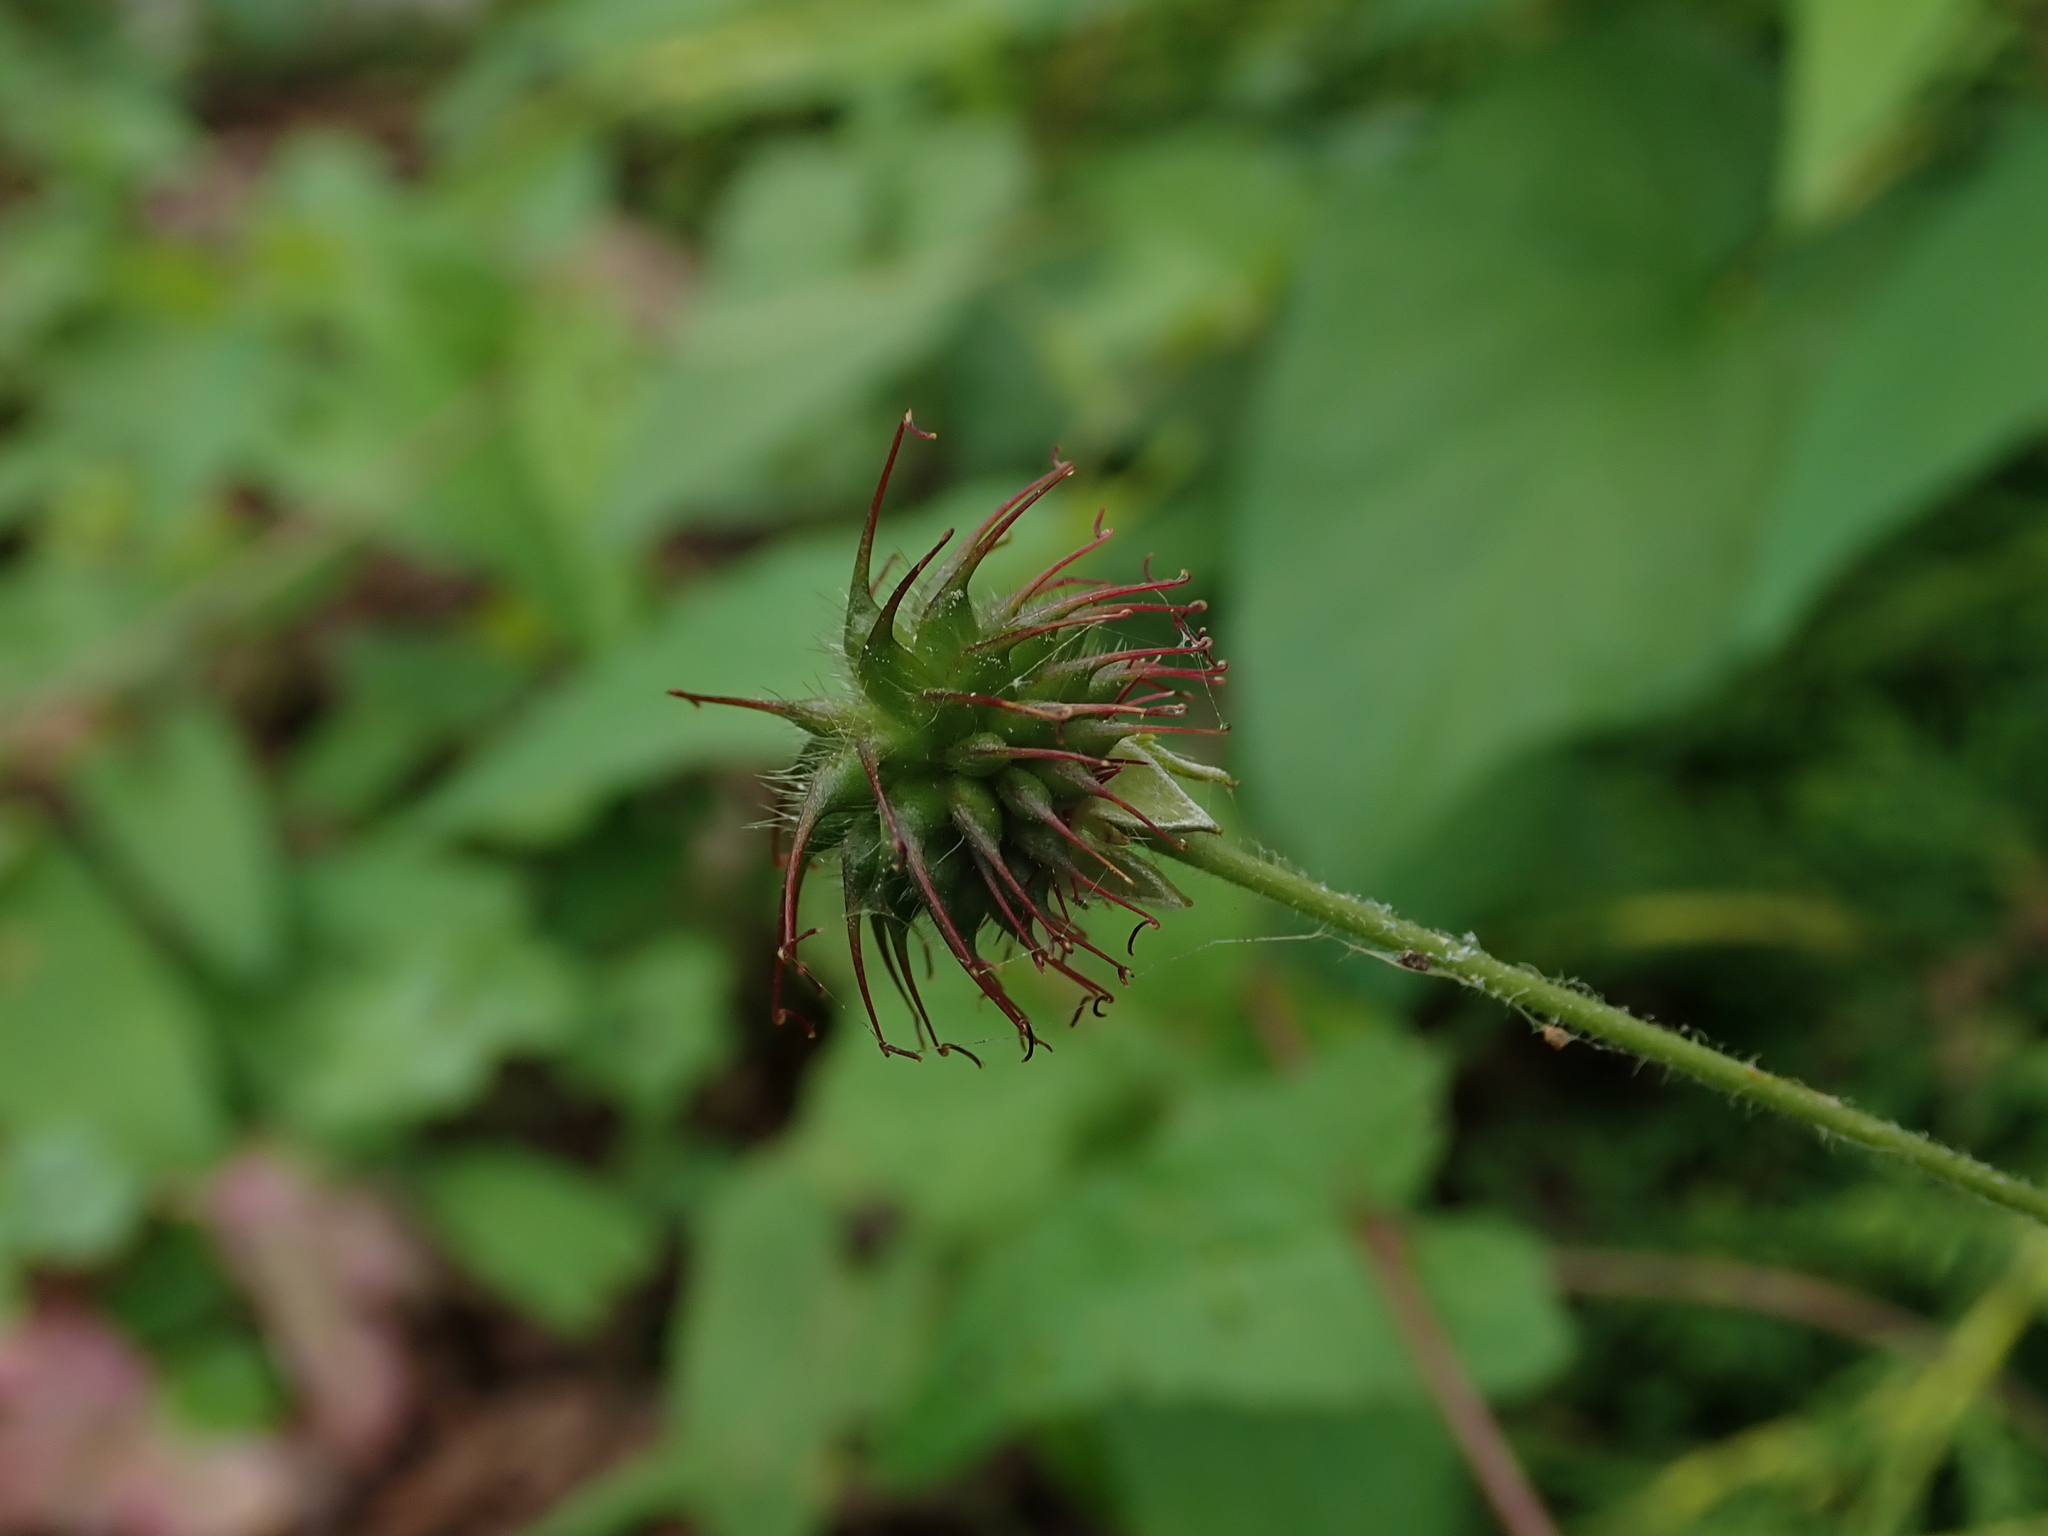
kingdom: Plantae
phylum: Tracheophyta
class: Magnoliopsida
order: Rosales
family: Rosaceae
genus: Geum
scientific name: Geum urbanum
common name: Wood avens
